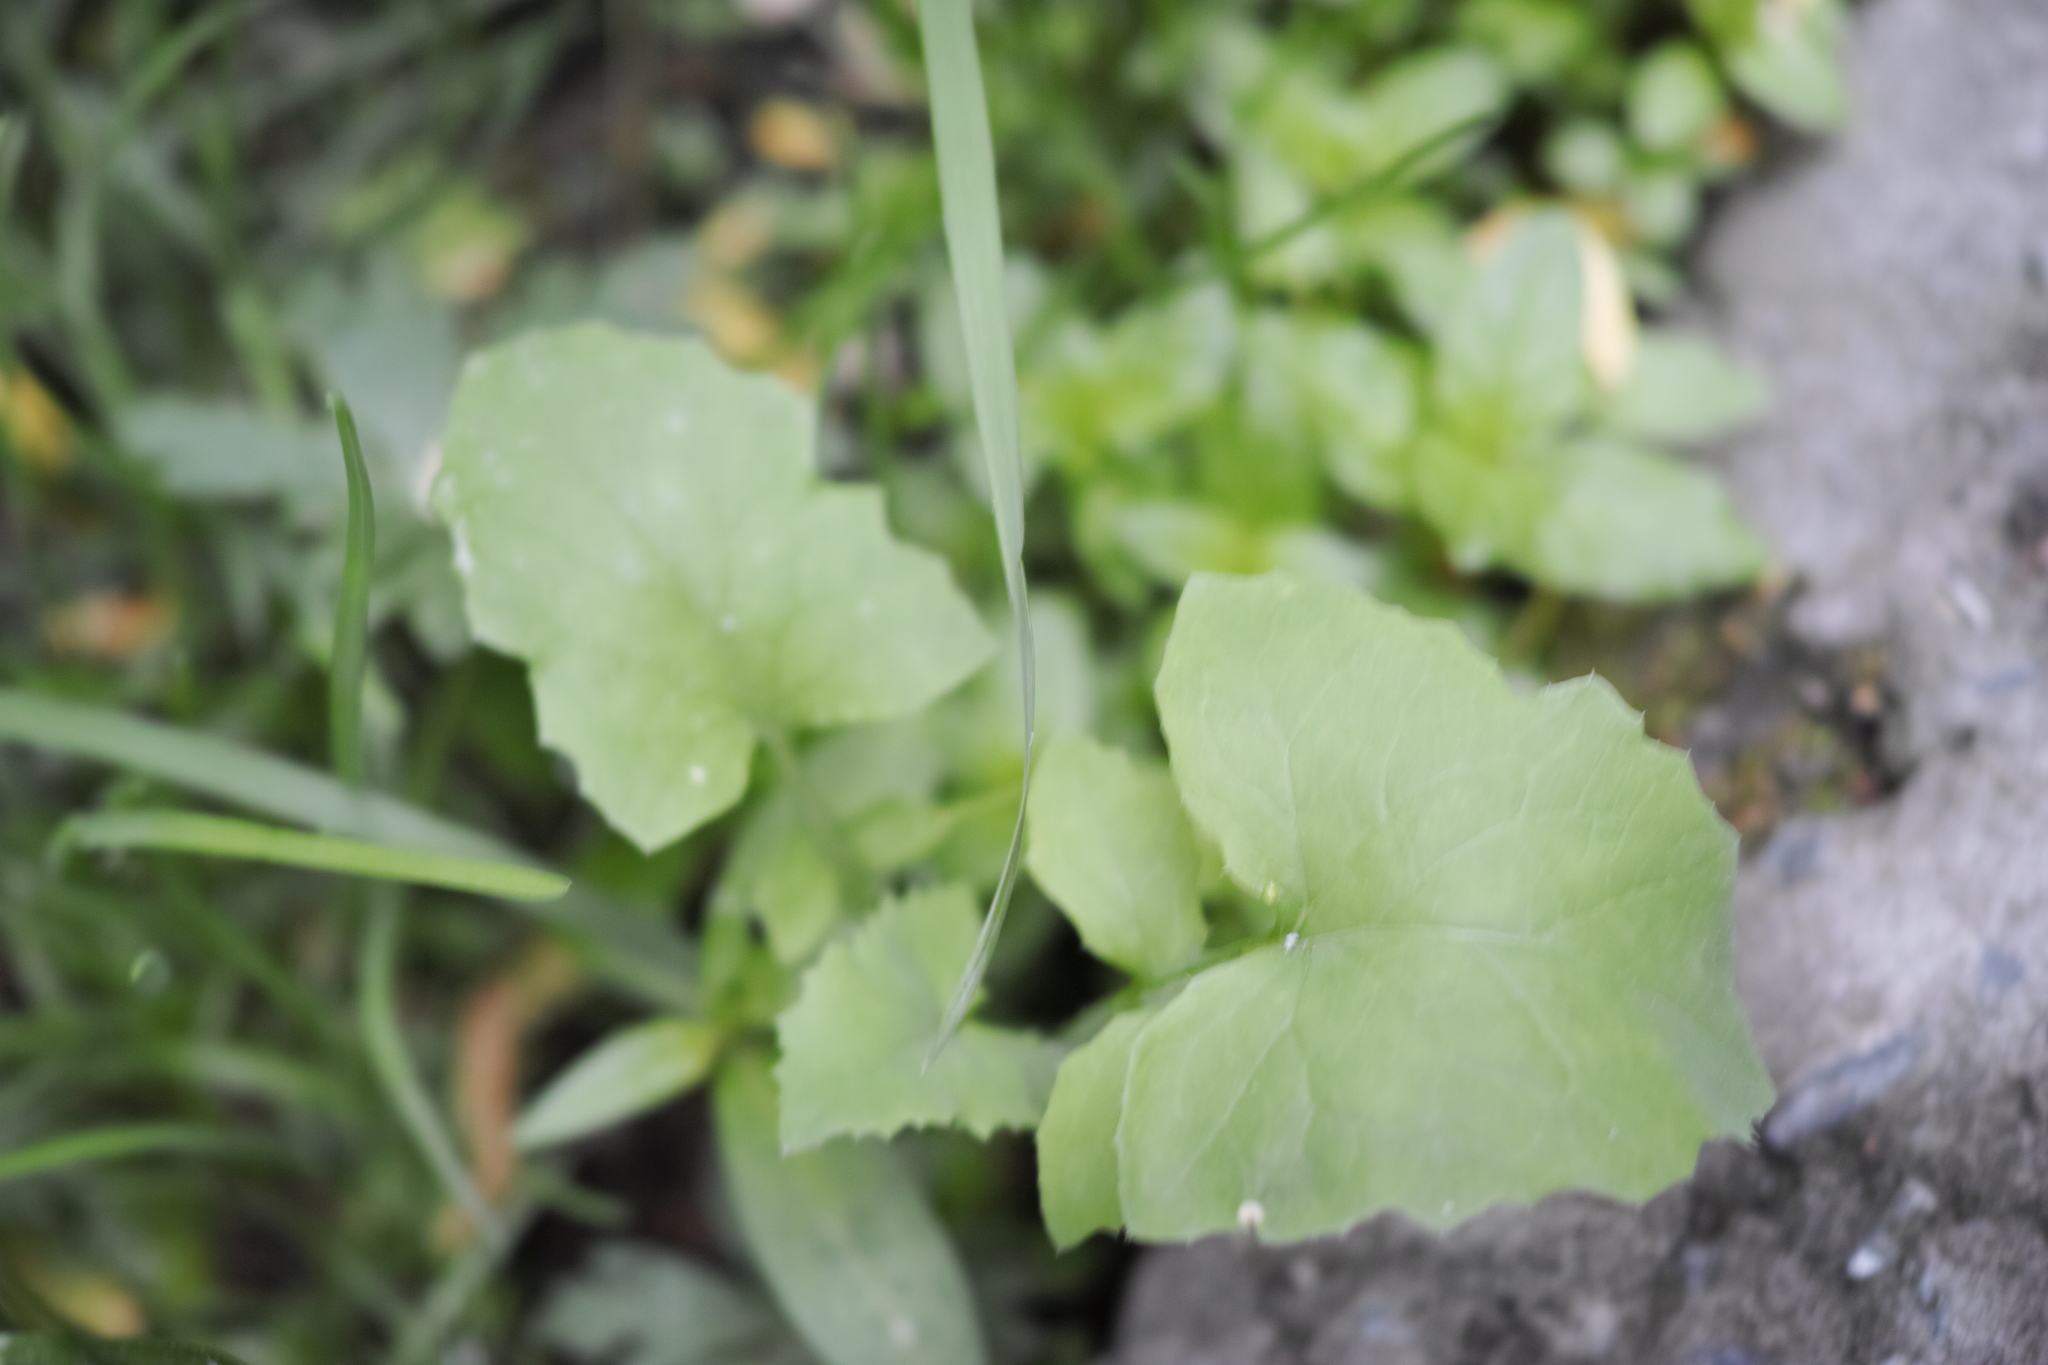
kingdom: Plantae
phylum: Tracheophyta
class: Magnoliopsida
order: Asterales
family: Asteraceae
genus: Sonchus
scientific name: Sonchus oleraceus
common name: Common sowthistle
